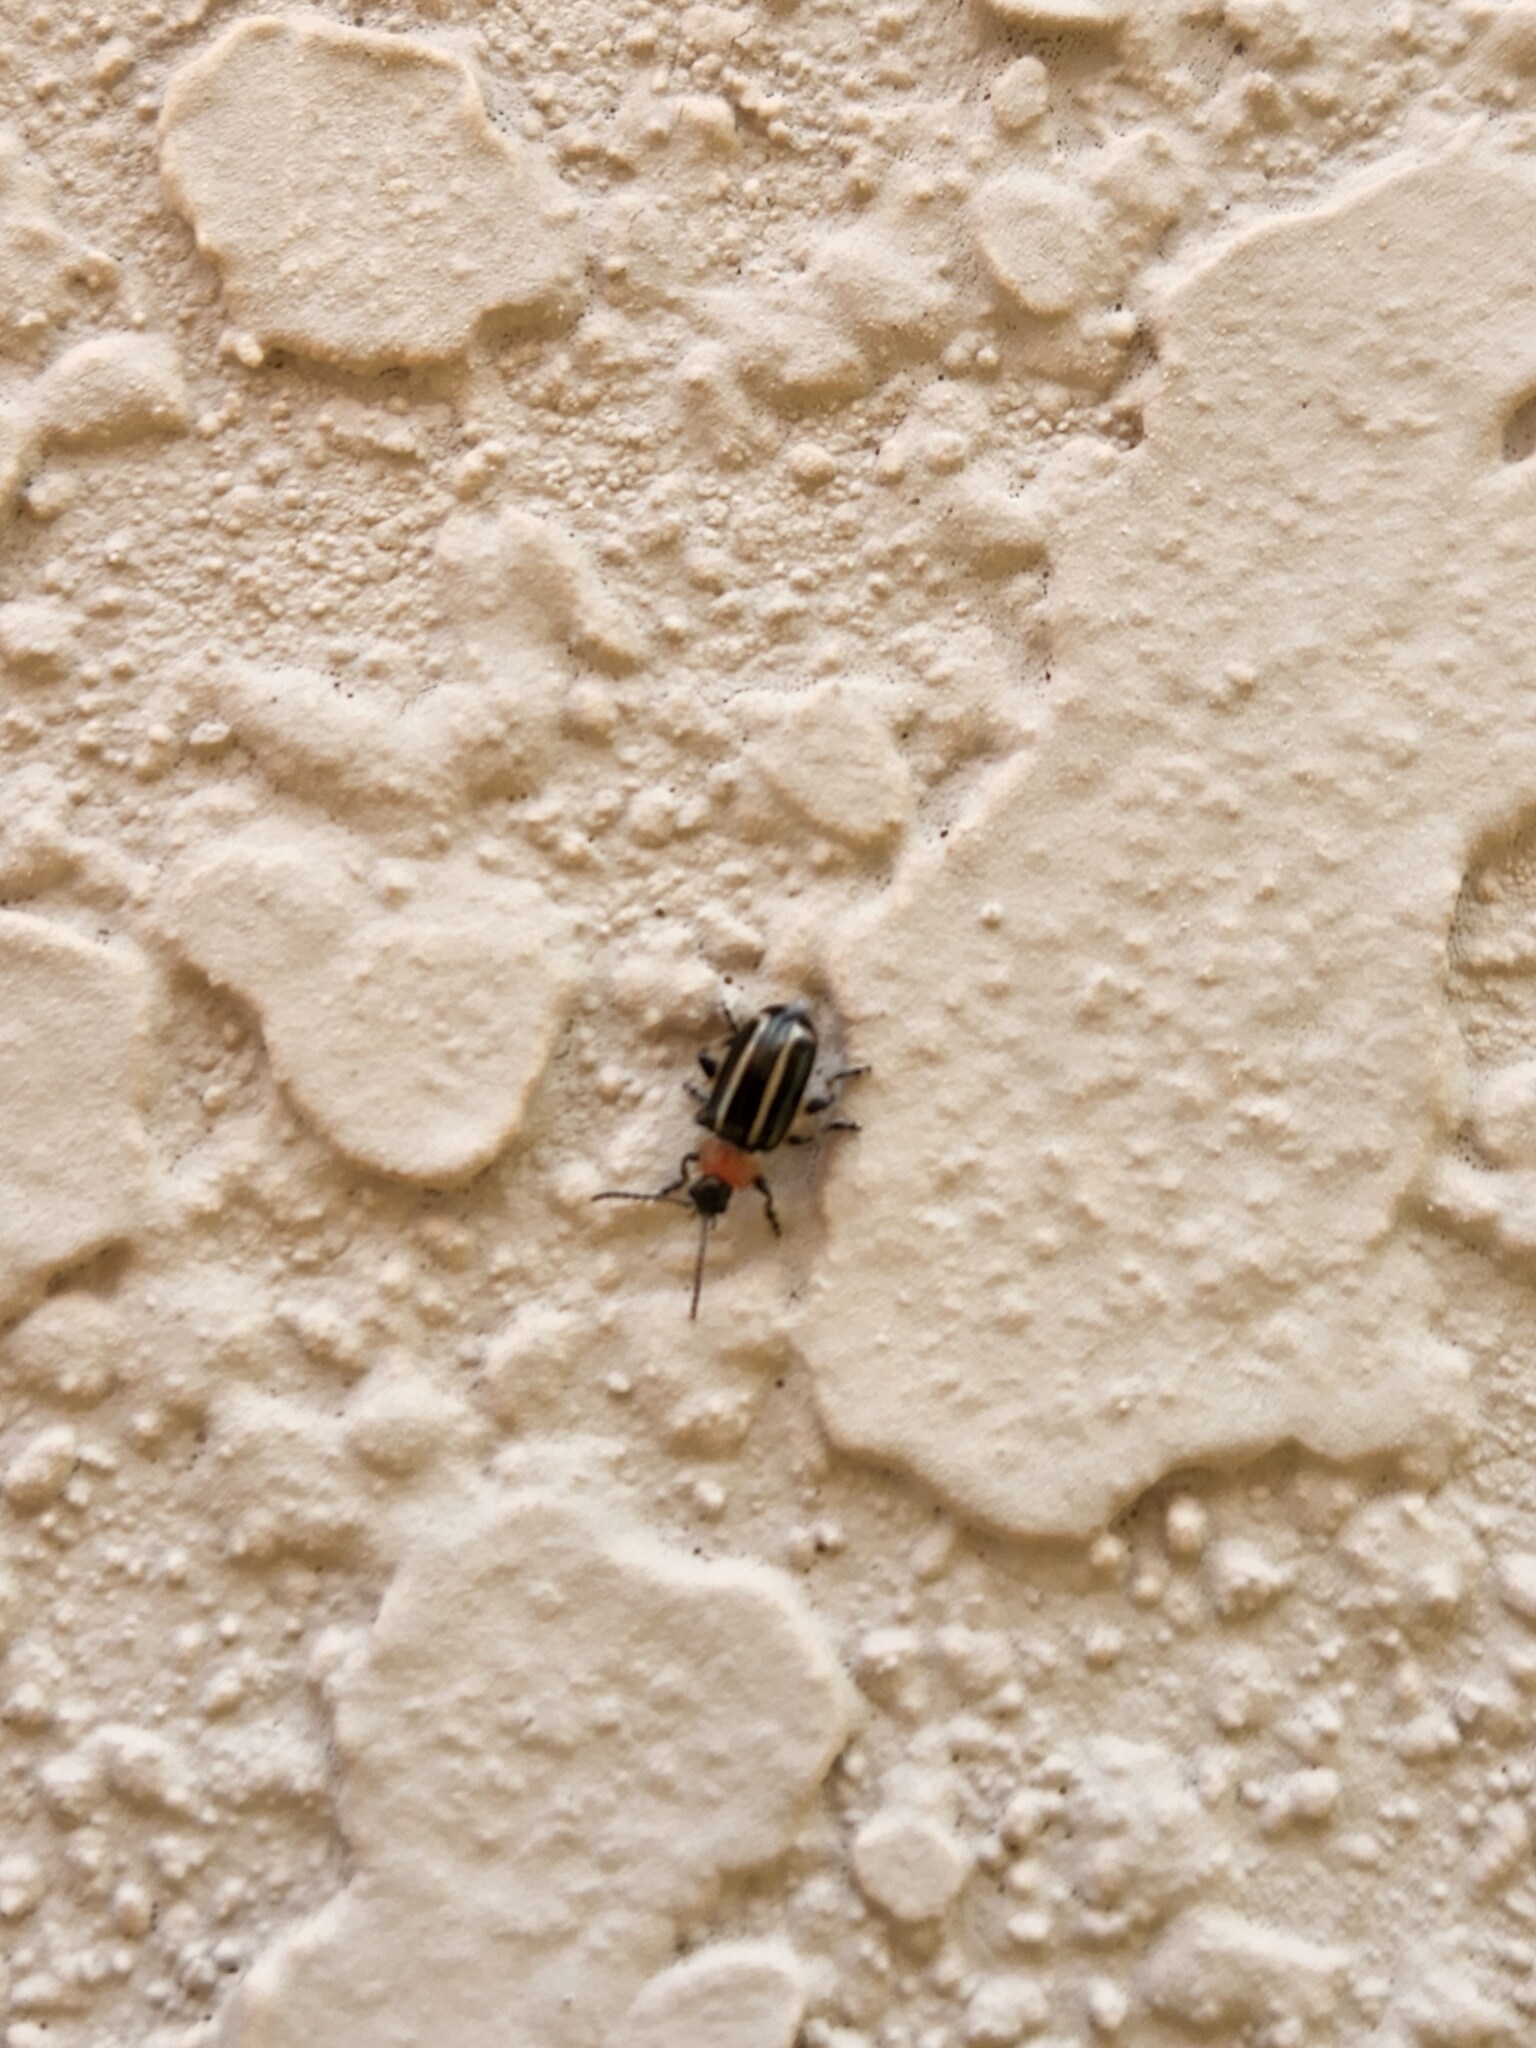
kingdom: Animalia
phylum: Arthropoda
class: Insecta
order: Coleoptera
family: Chrysomelidae
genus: Disonycha
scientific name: Disonycha
